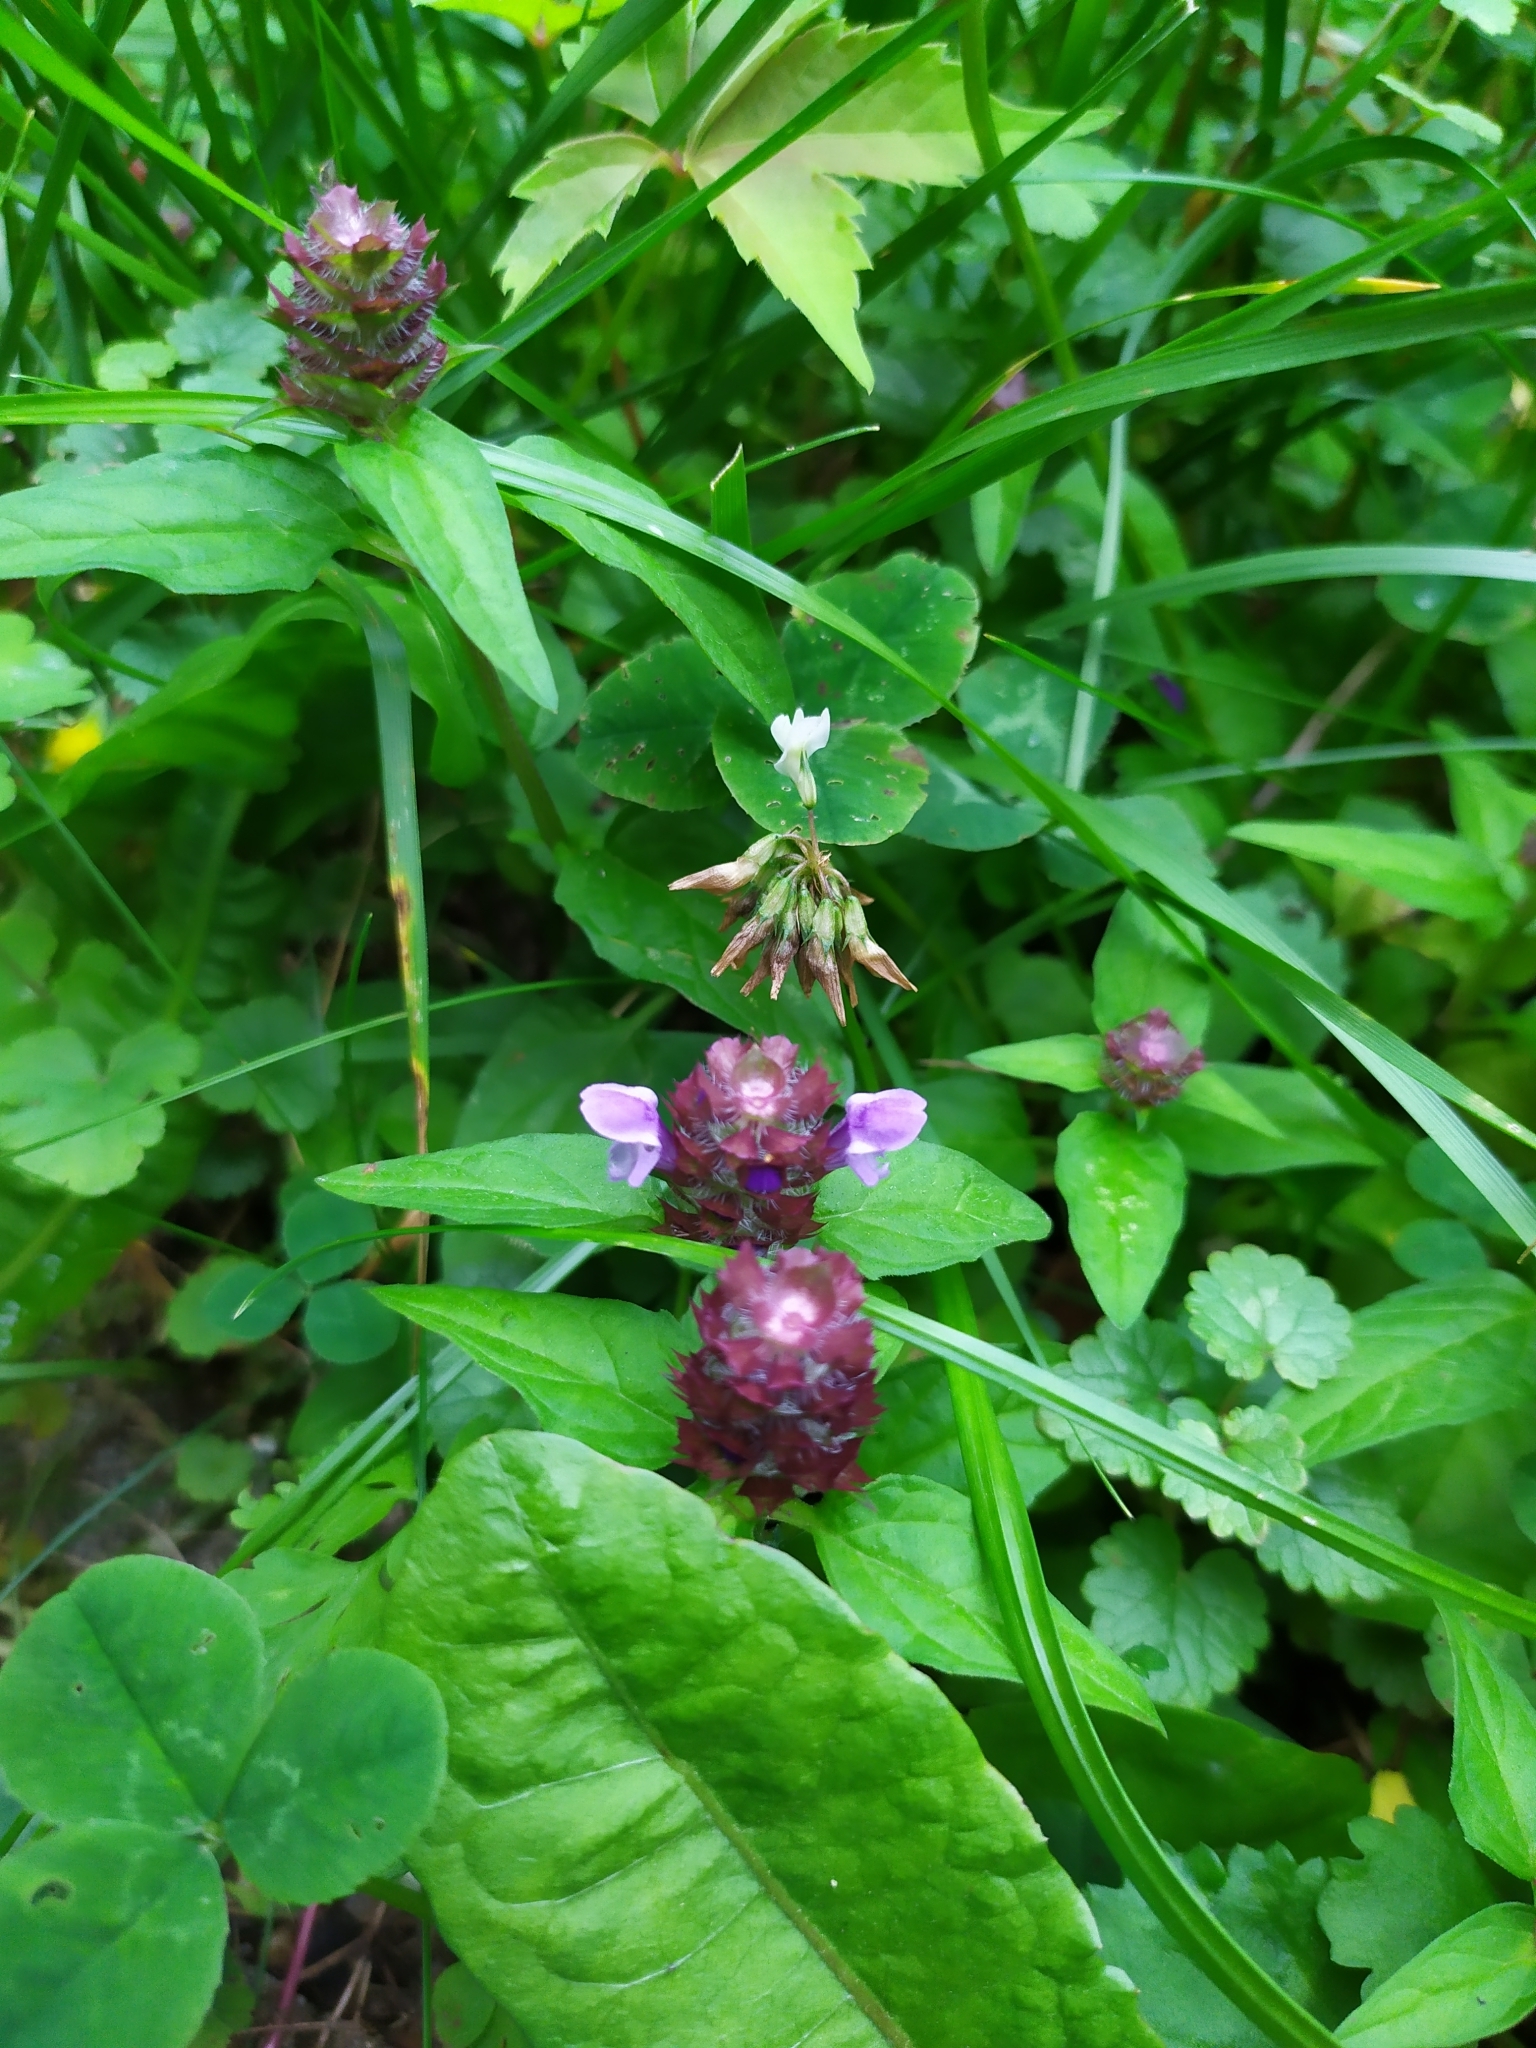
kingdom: Plantae
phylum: Tracheophyta
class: Magnoliopsida
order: Lamiales
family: Lamiaceae
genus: Prunella
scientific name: Prunella vulgaris
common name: Heal-all
